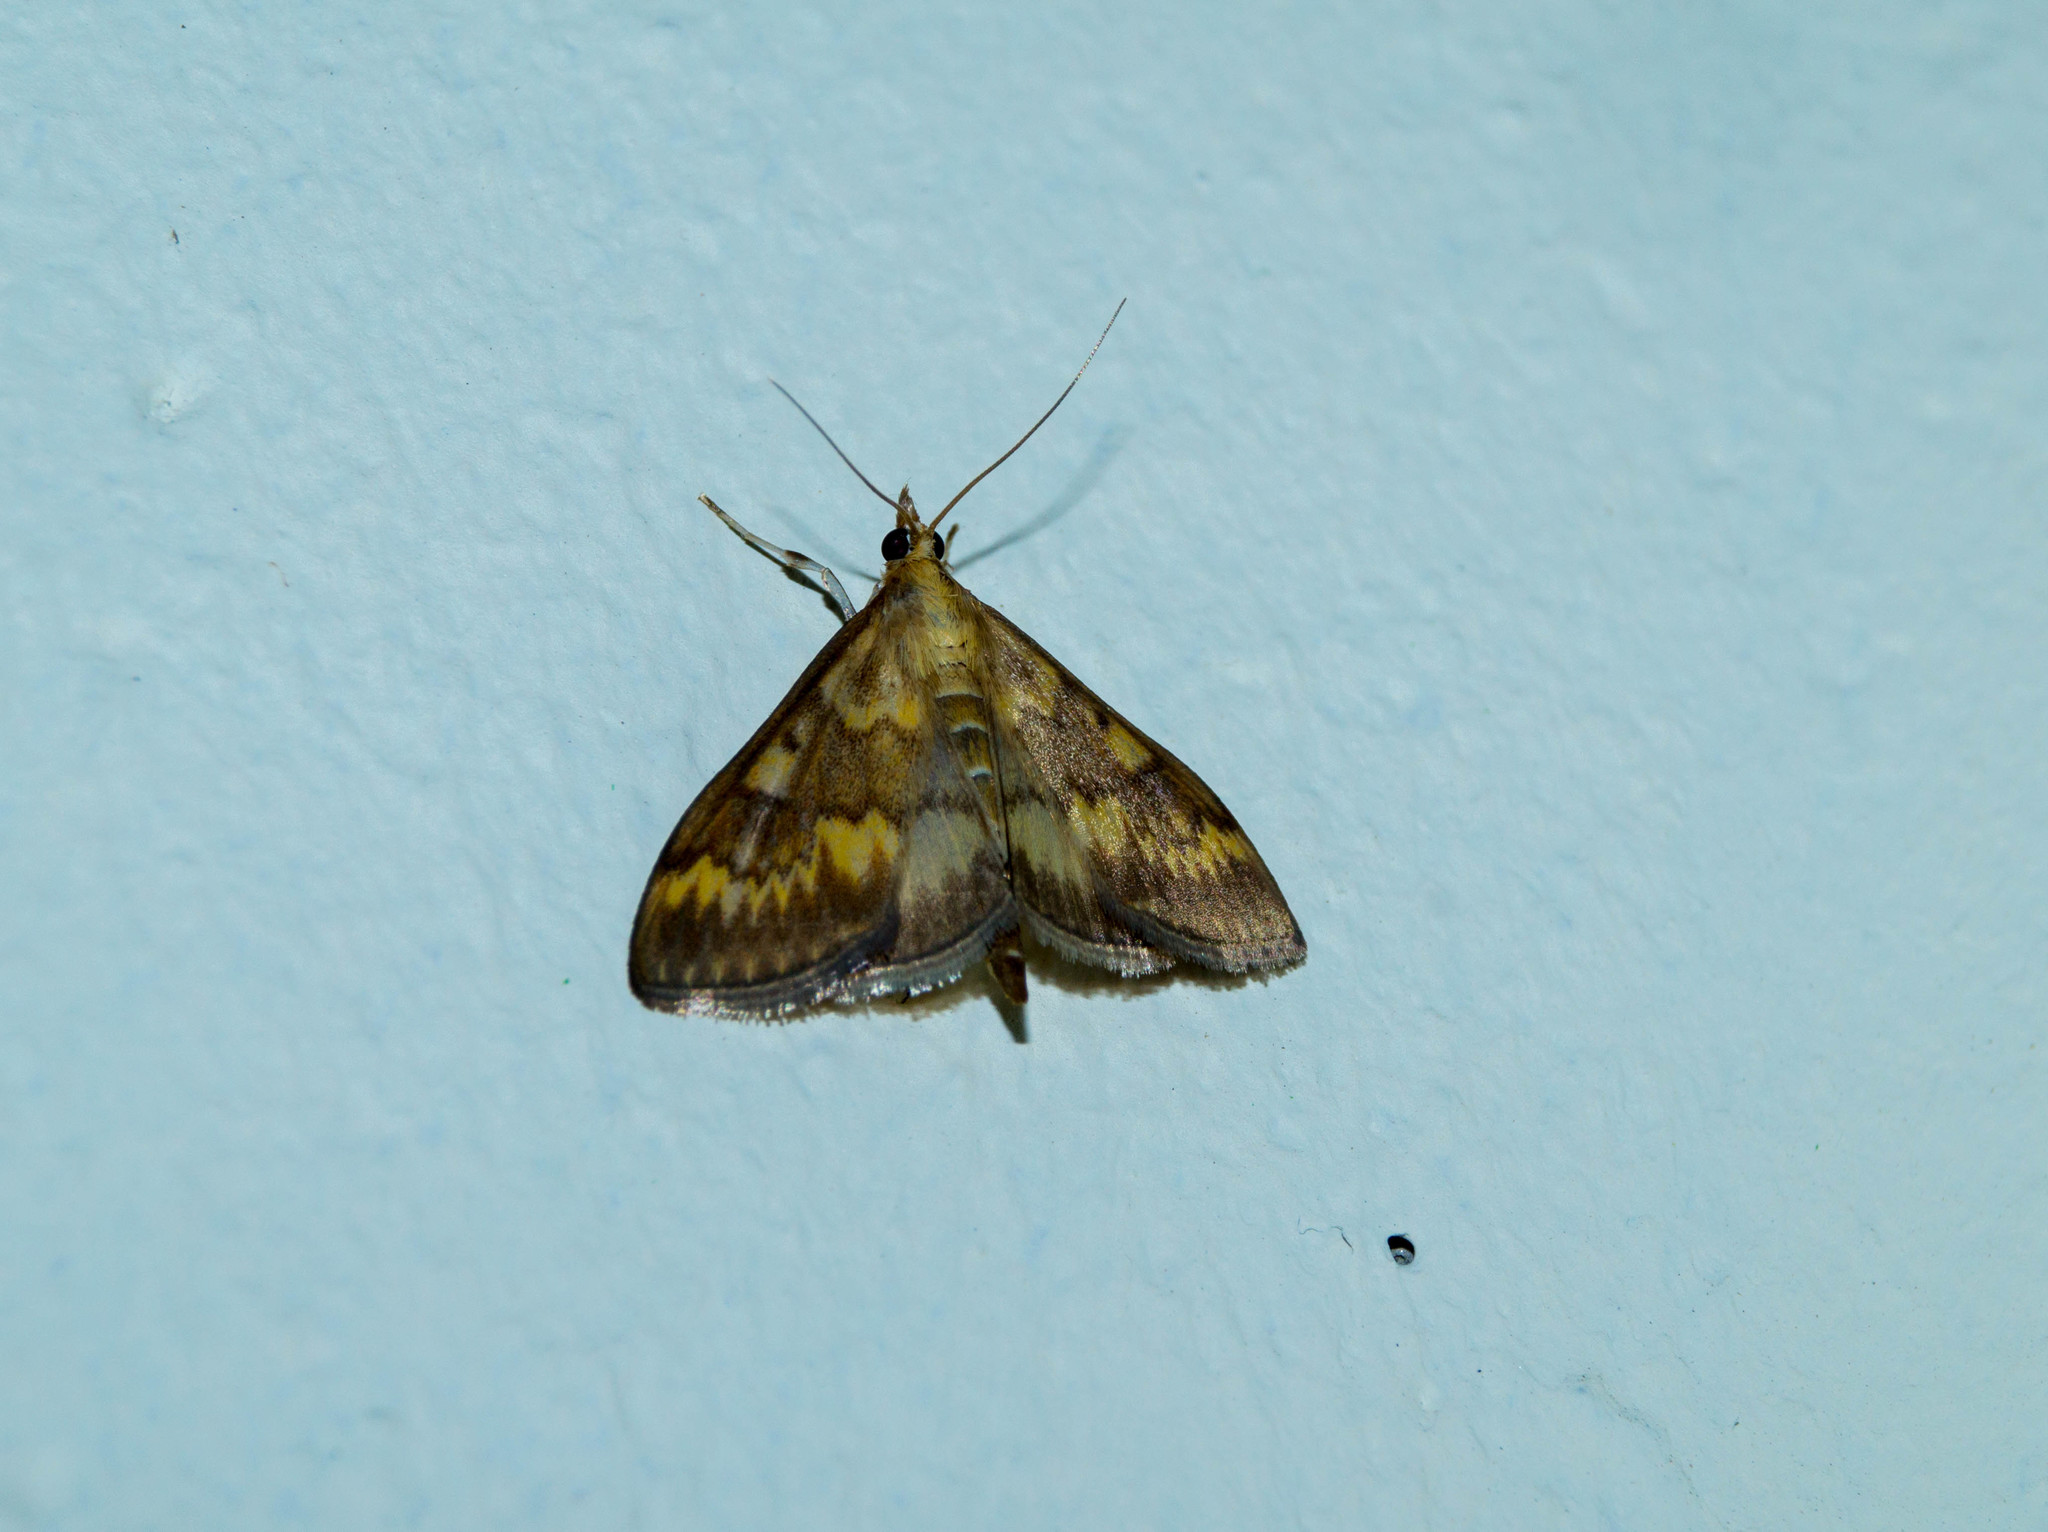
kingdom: Animalia
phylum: Arthropoda
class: Insecta
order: Lepidoptera
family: Crambidae
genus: Ostrinia
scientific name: Ostrinia nubilalis
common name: European corn borer
